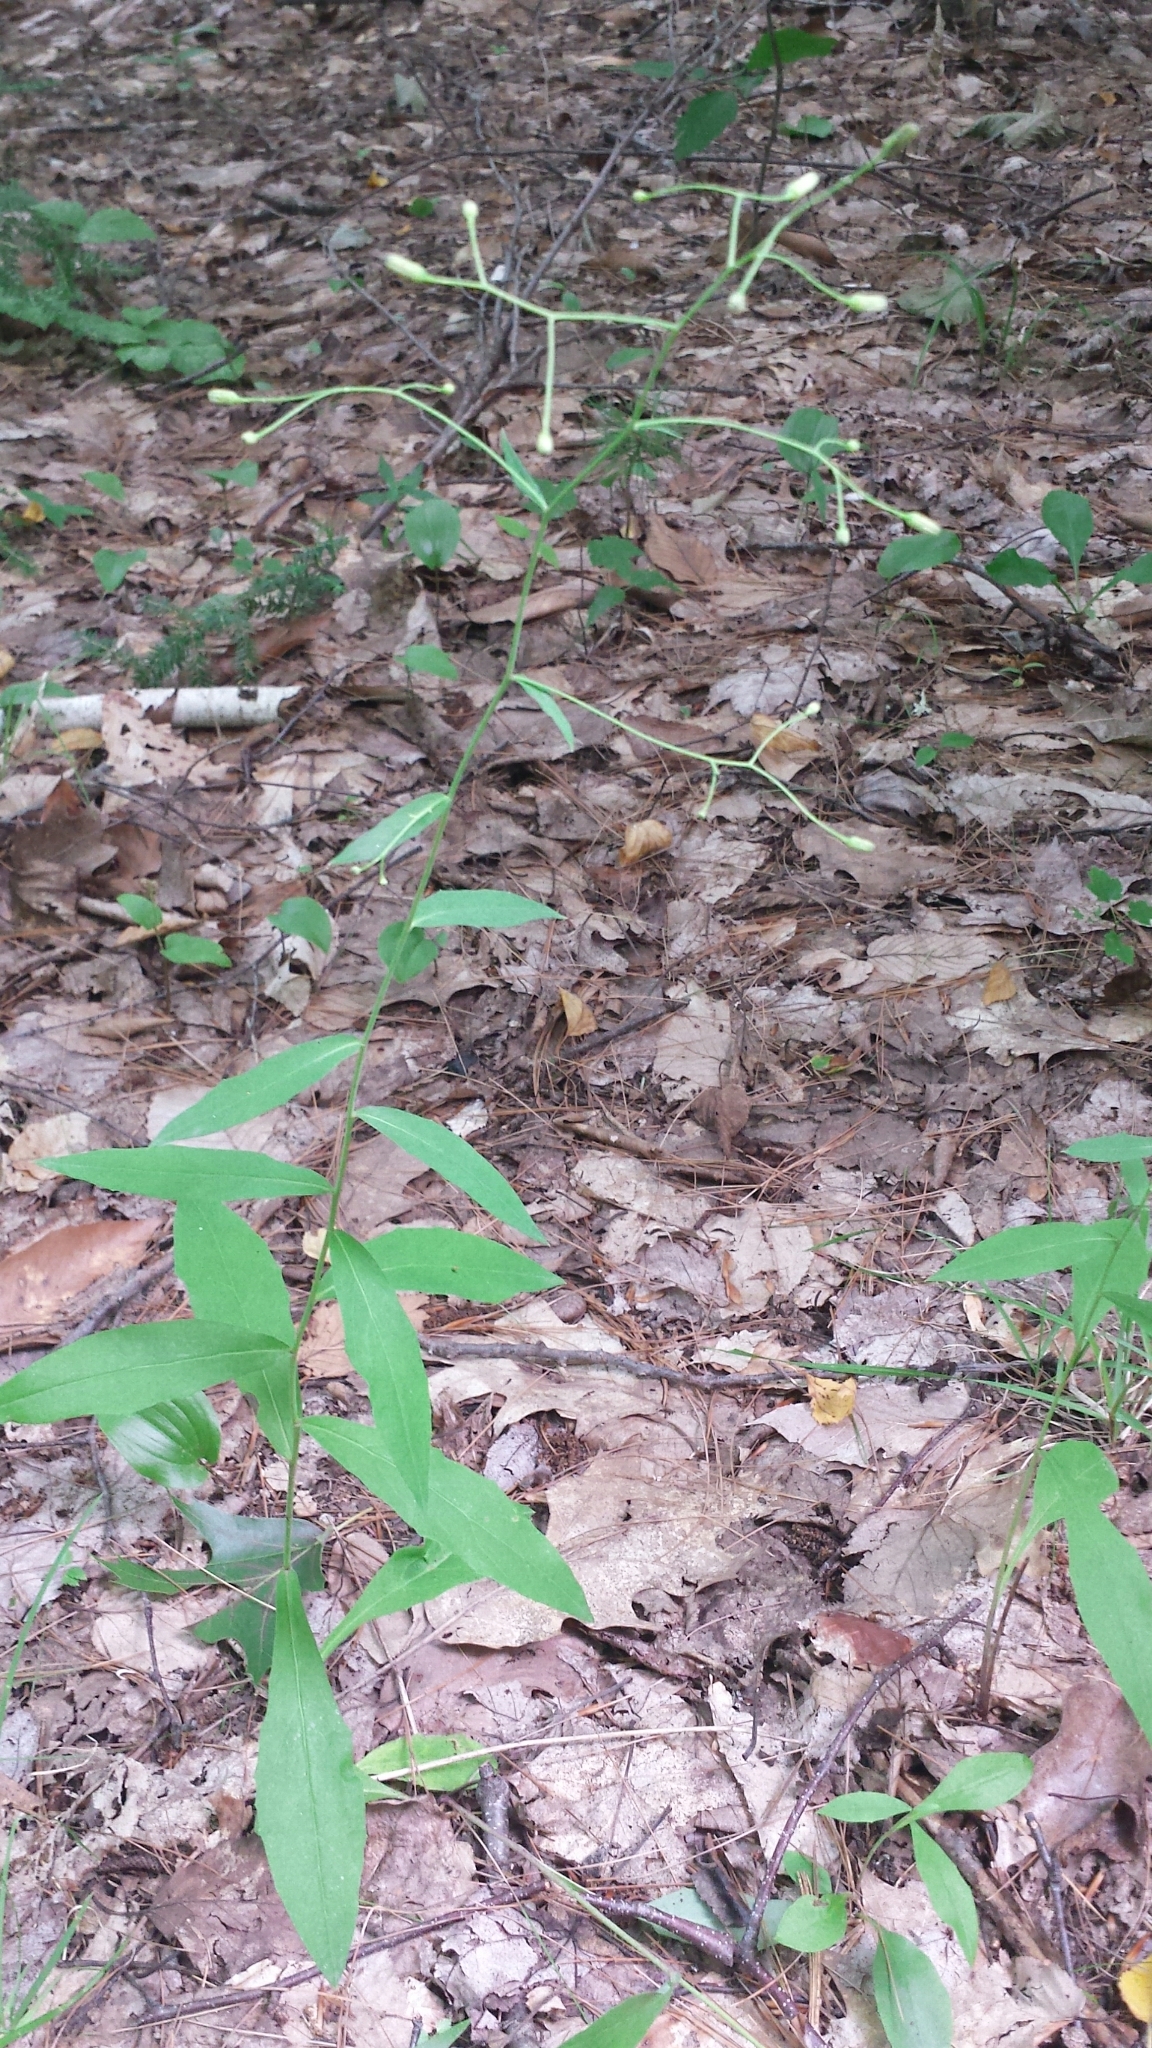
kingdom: Plantae
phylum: Tracheophyta
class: Magnoliopsida
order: Asterales
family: Asteraceae
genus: Hieracium
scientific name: Hieracium paniculatum
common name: Allegheny hawkweed
